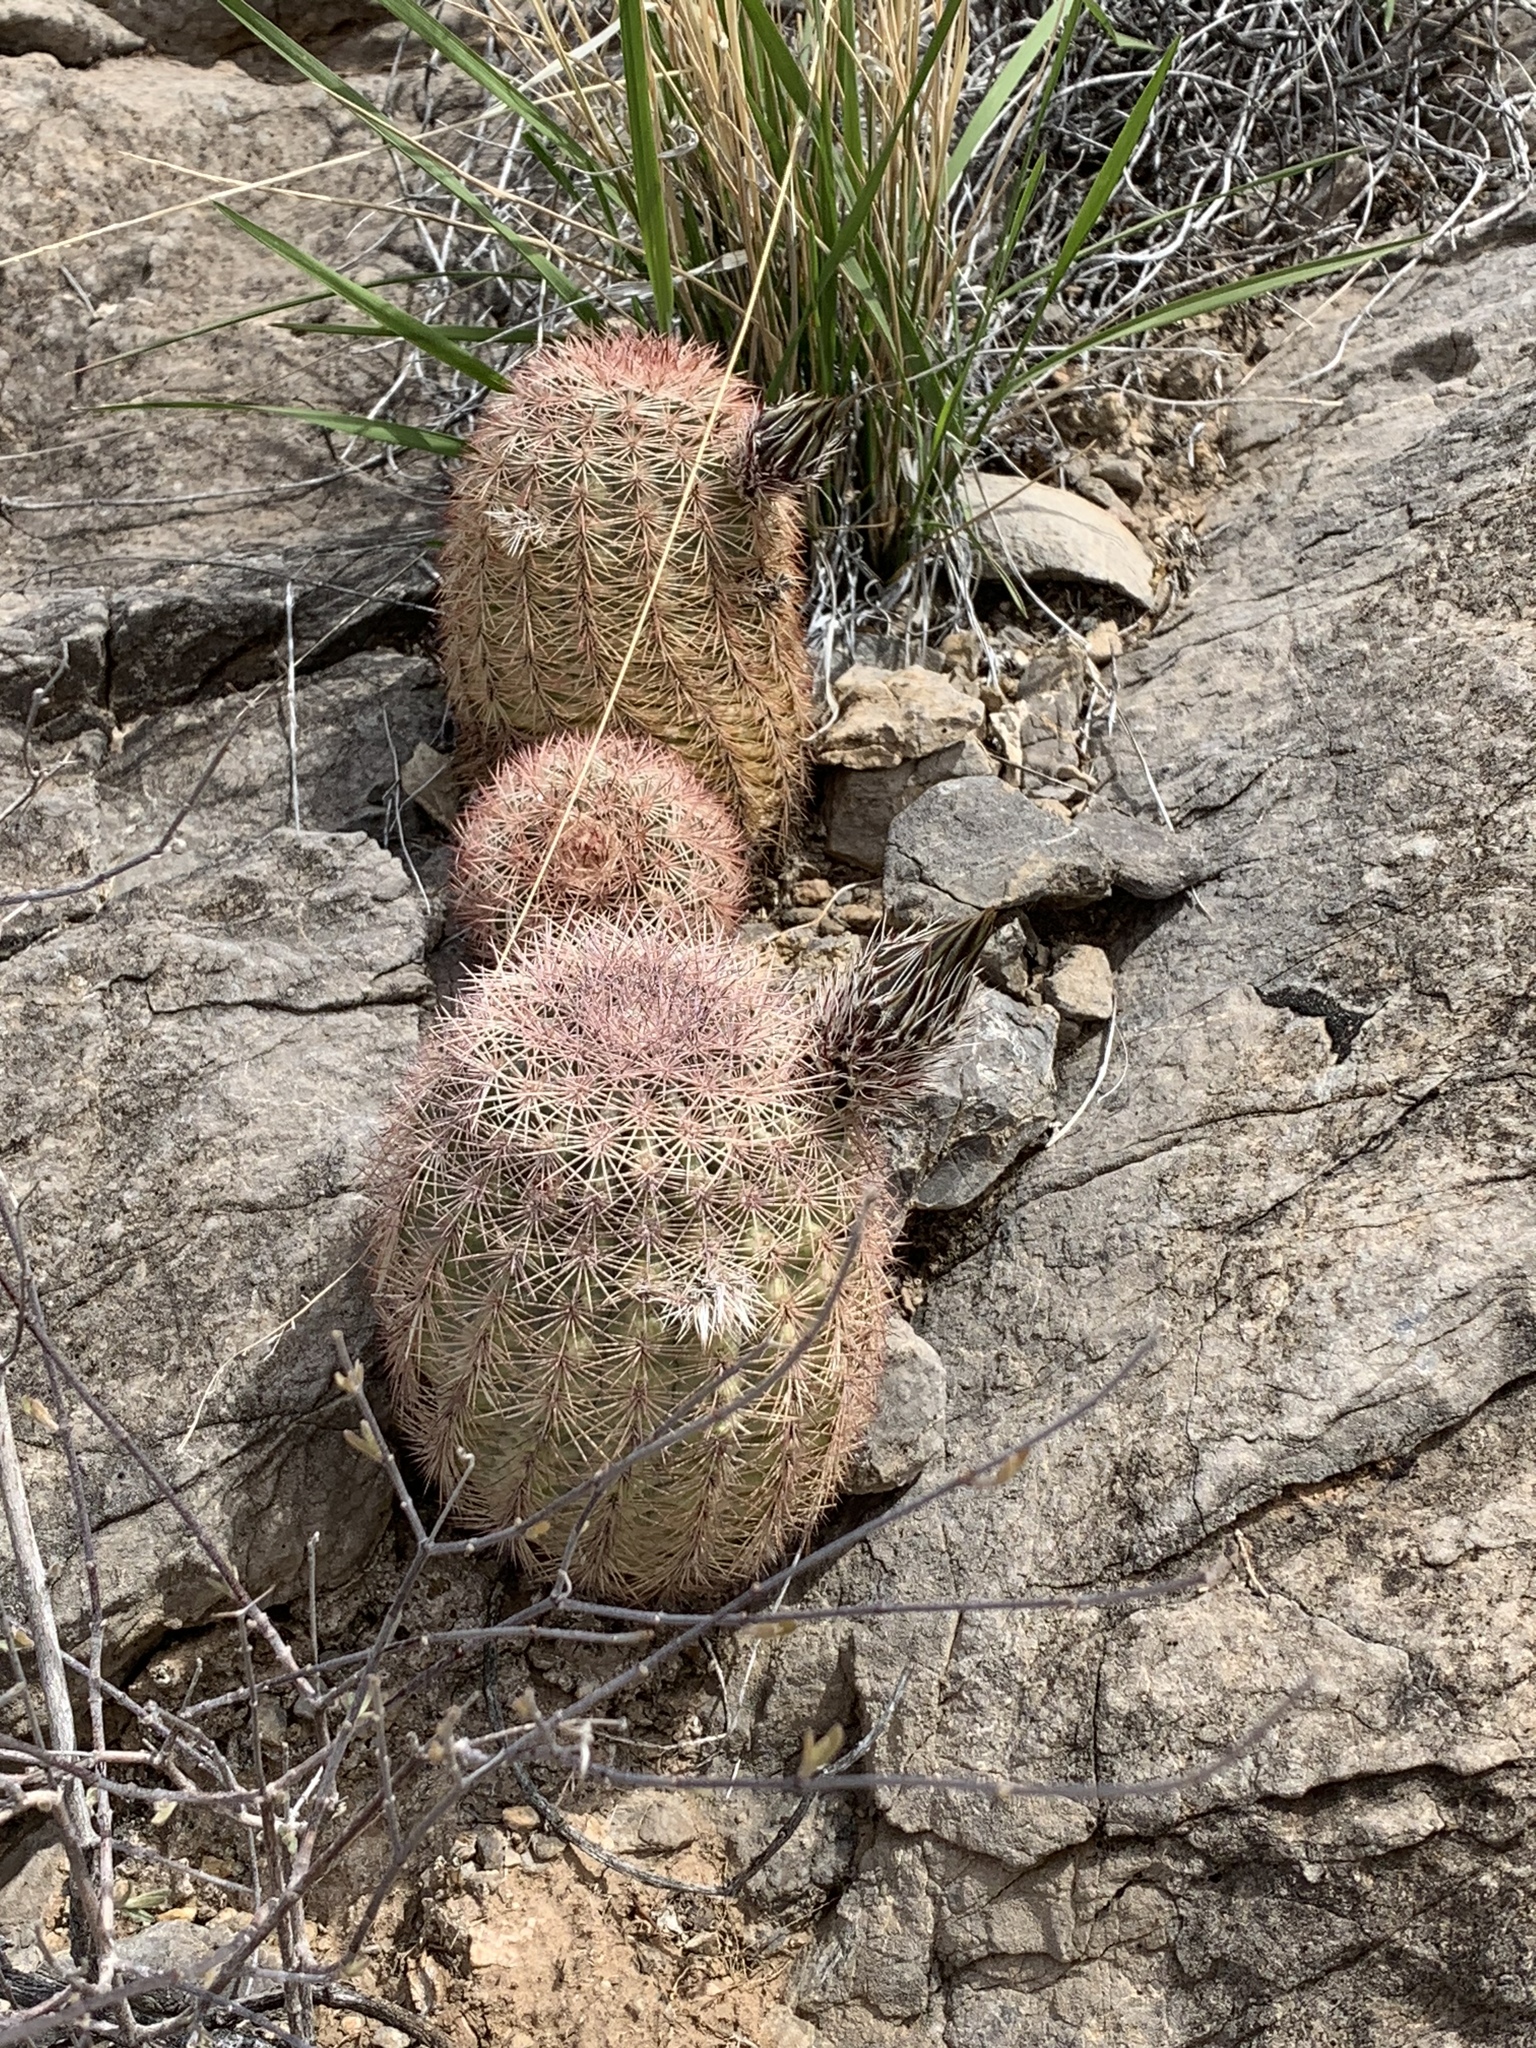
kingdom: Plantae
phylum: Tracheophyta
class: Magnoliopsida
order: Caryophyllales
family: Cactaceae
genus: Echinocereus
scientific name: Echinocereus dasyacanthus
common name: Spiny hedgehog cactus
